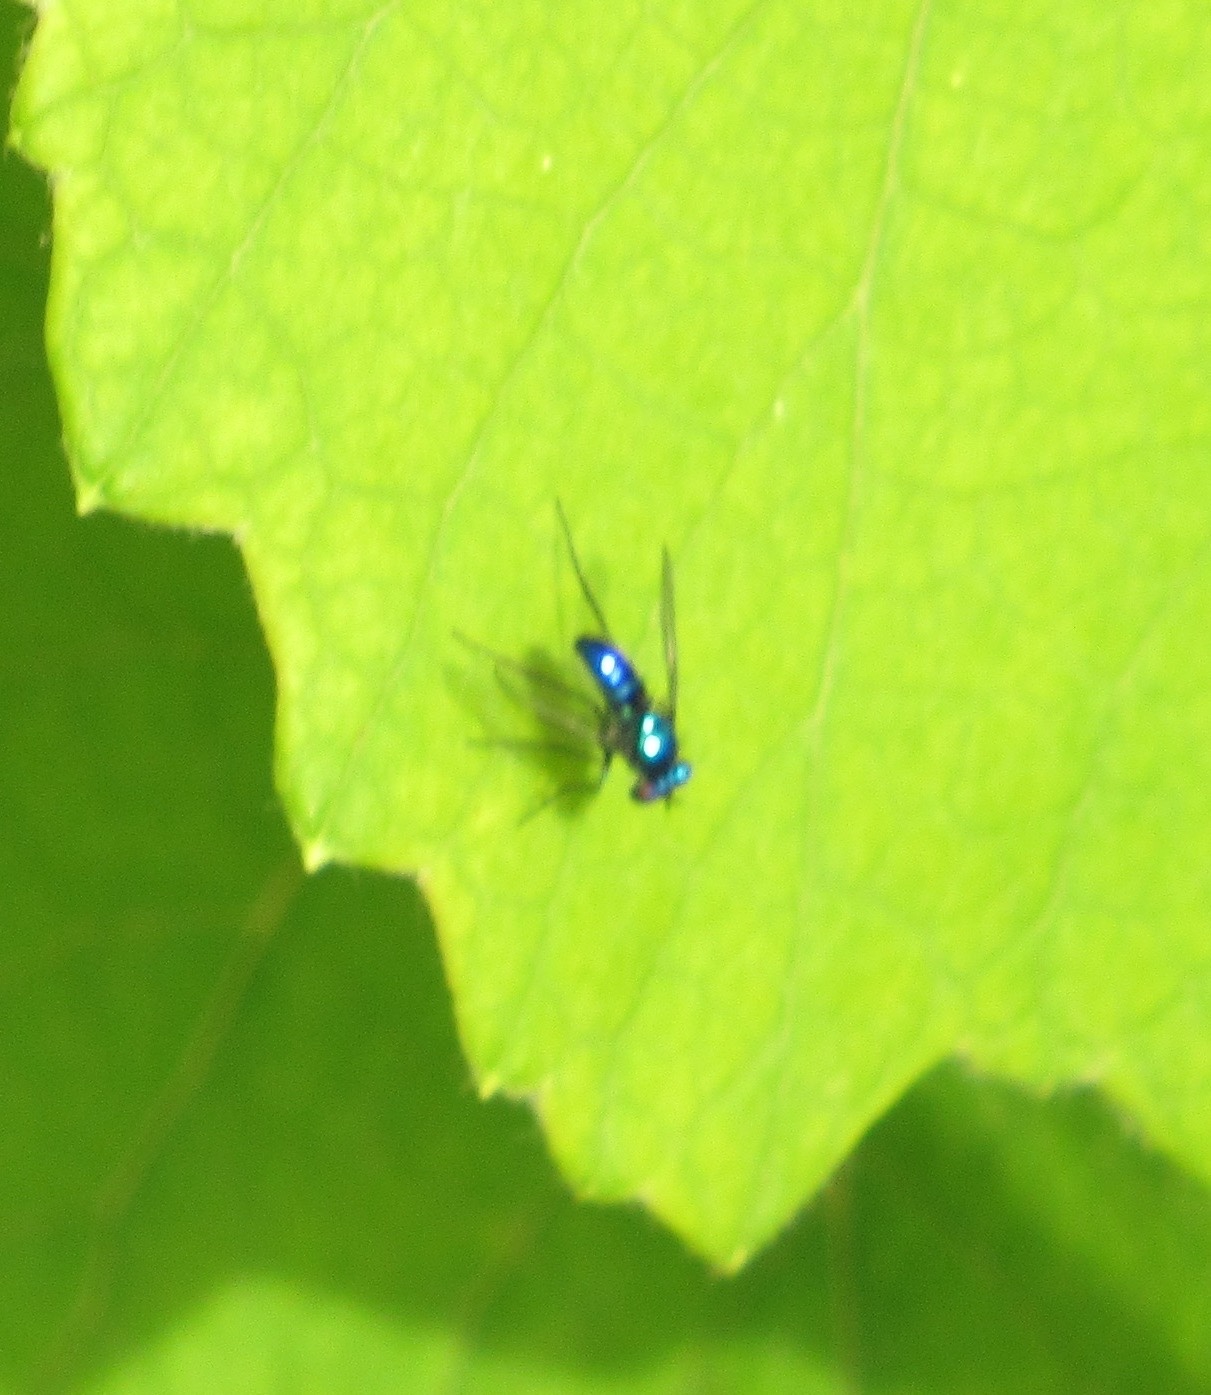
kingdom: Animalia
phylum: Arthropoda
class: Insecta
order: Diptera
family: Dolichopodidae
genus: Condylostylus
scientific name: Condylostylus mundus
